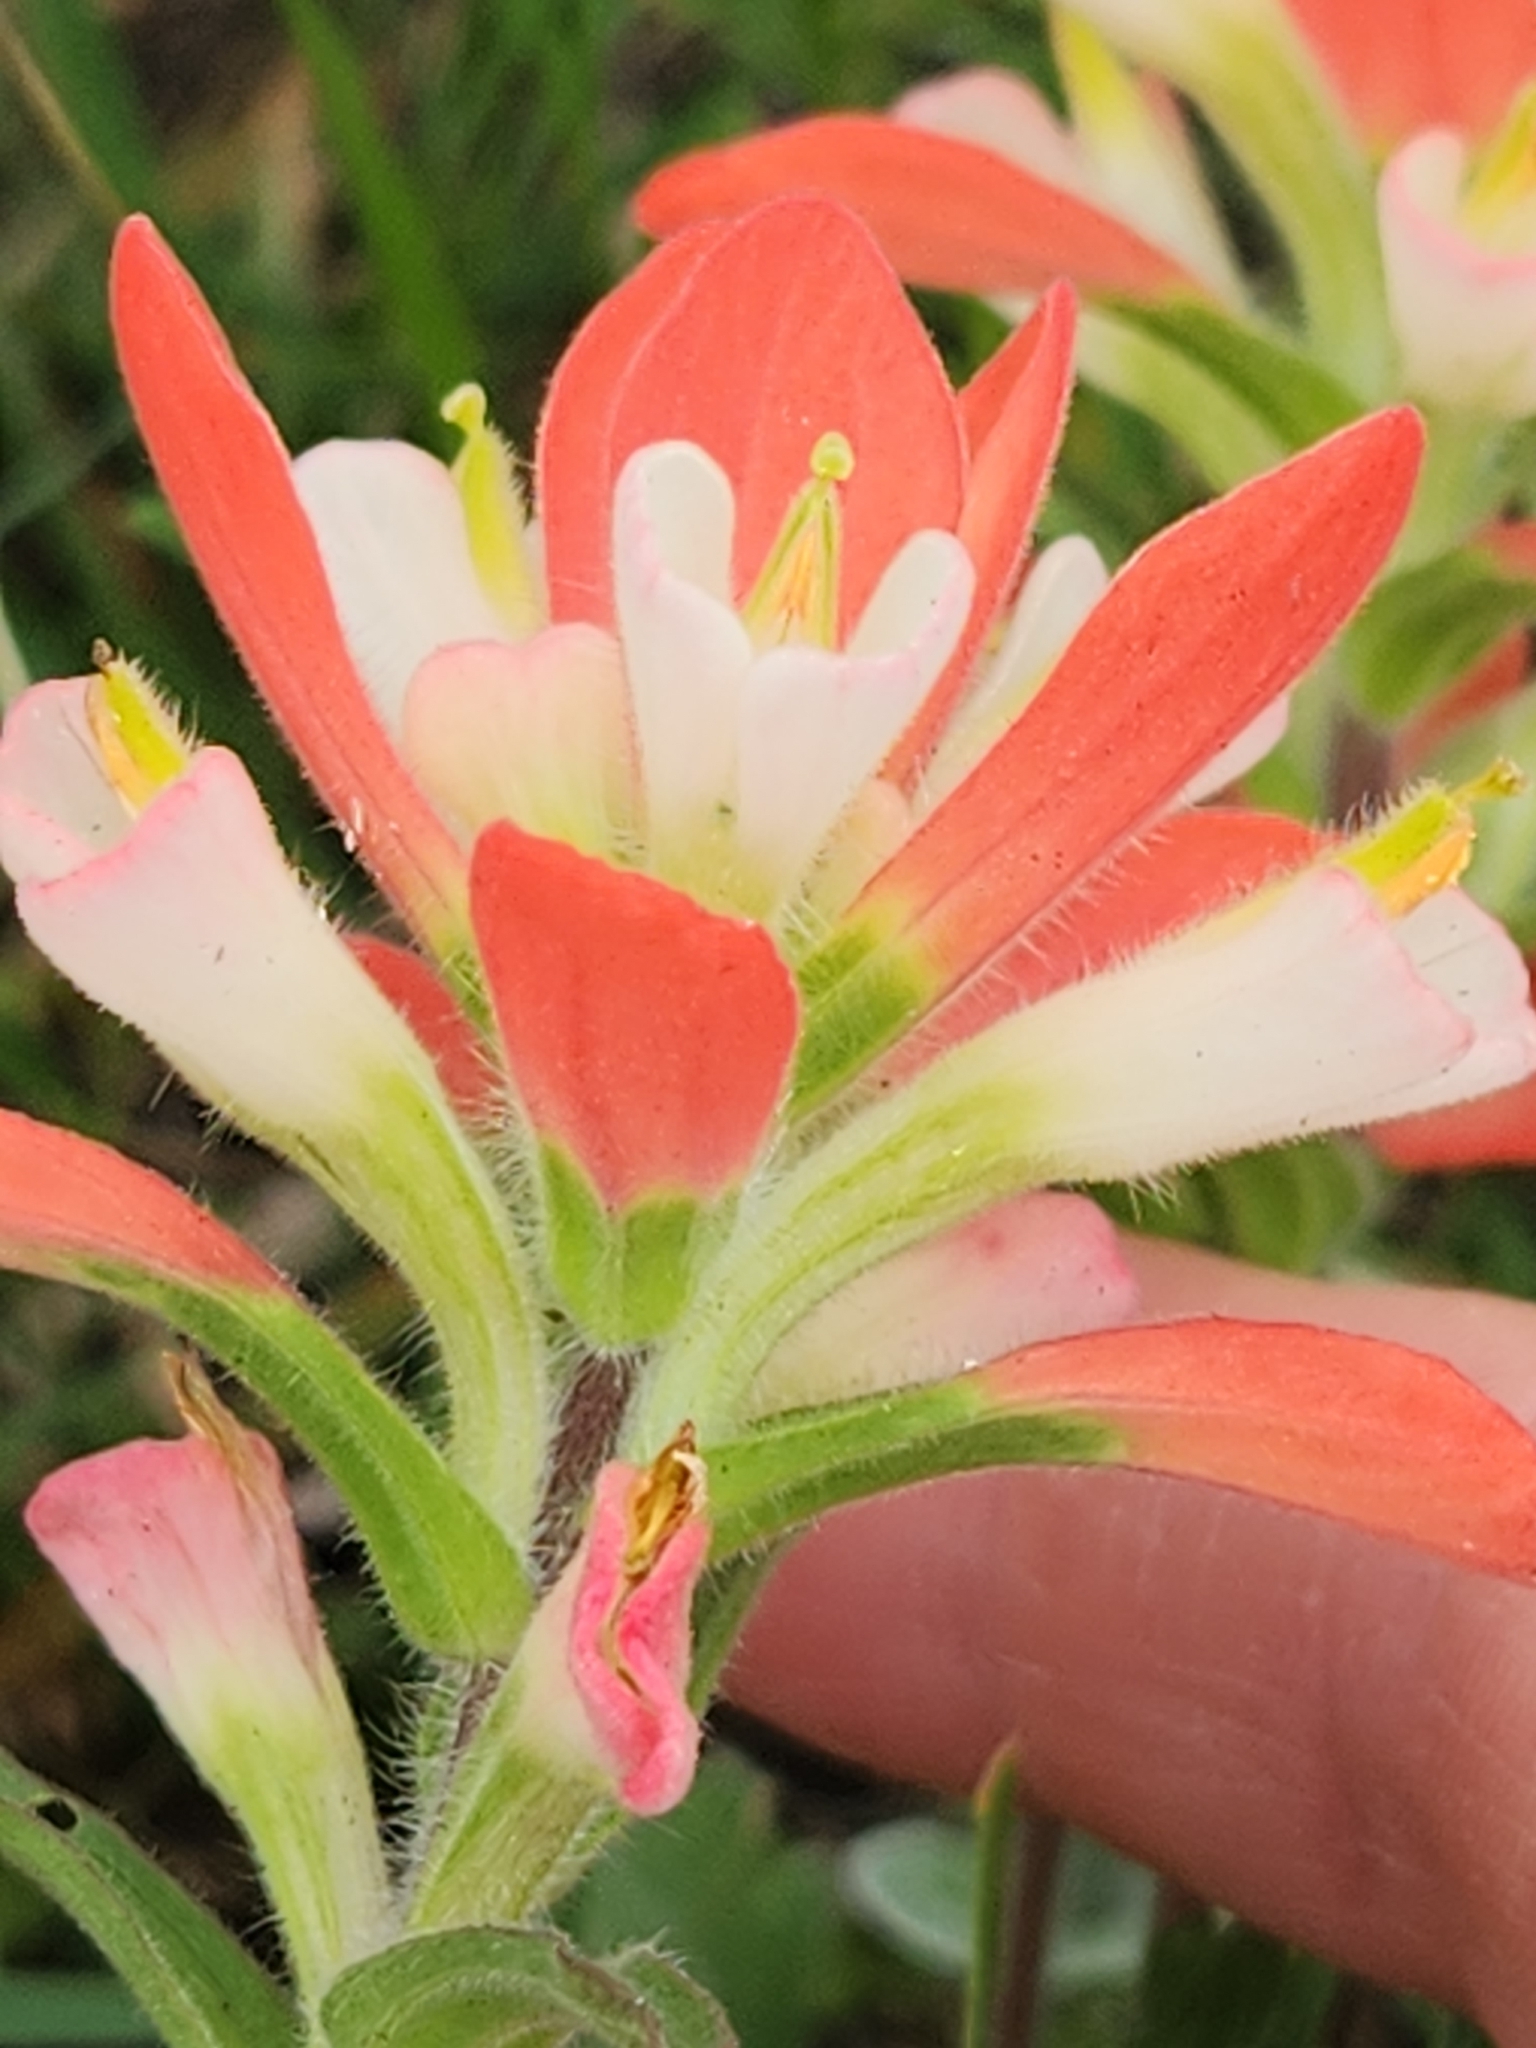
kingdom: Plantae
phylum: Tracheophyta
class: Magnoliopsida
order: Lamiales
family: Orobanchaceae
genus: Castilleja
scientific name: Castilleja indivisa
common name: Texas paintbrush
